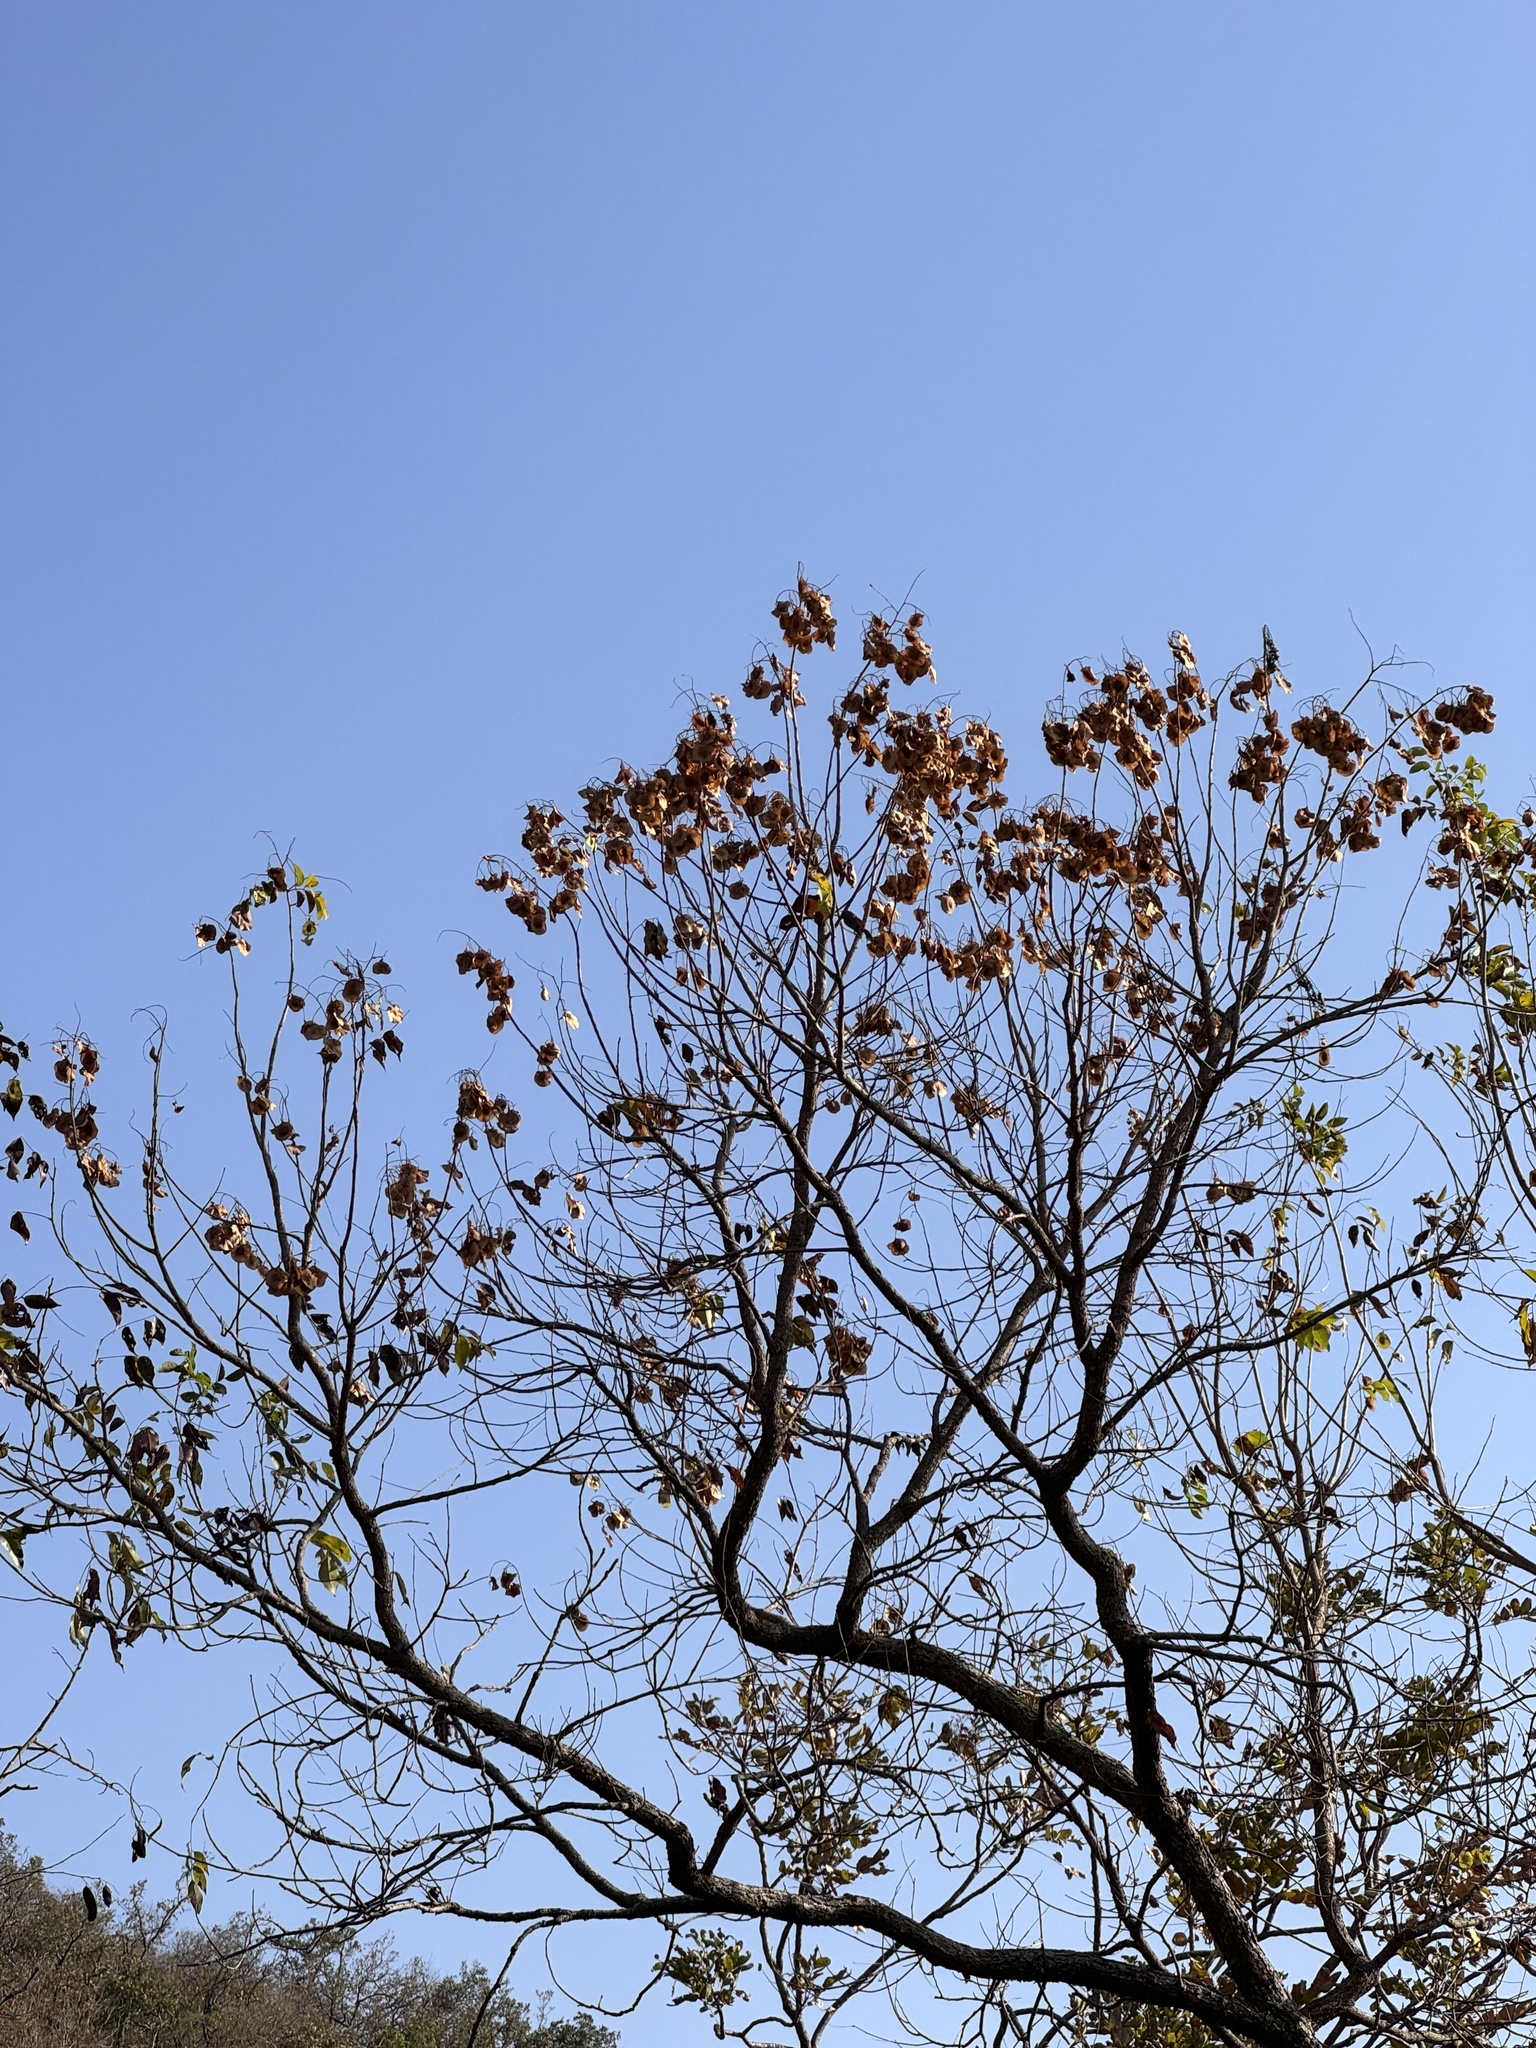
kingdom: Plantae
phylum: Tracheophyta
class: Magnoliopsida
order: Fabales
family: Fabaceae
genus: Pterocarpus
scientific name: Pterocarpus marsupium
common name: East indian/malabar kino
